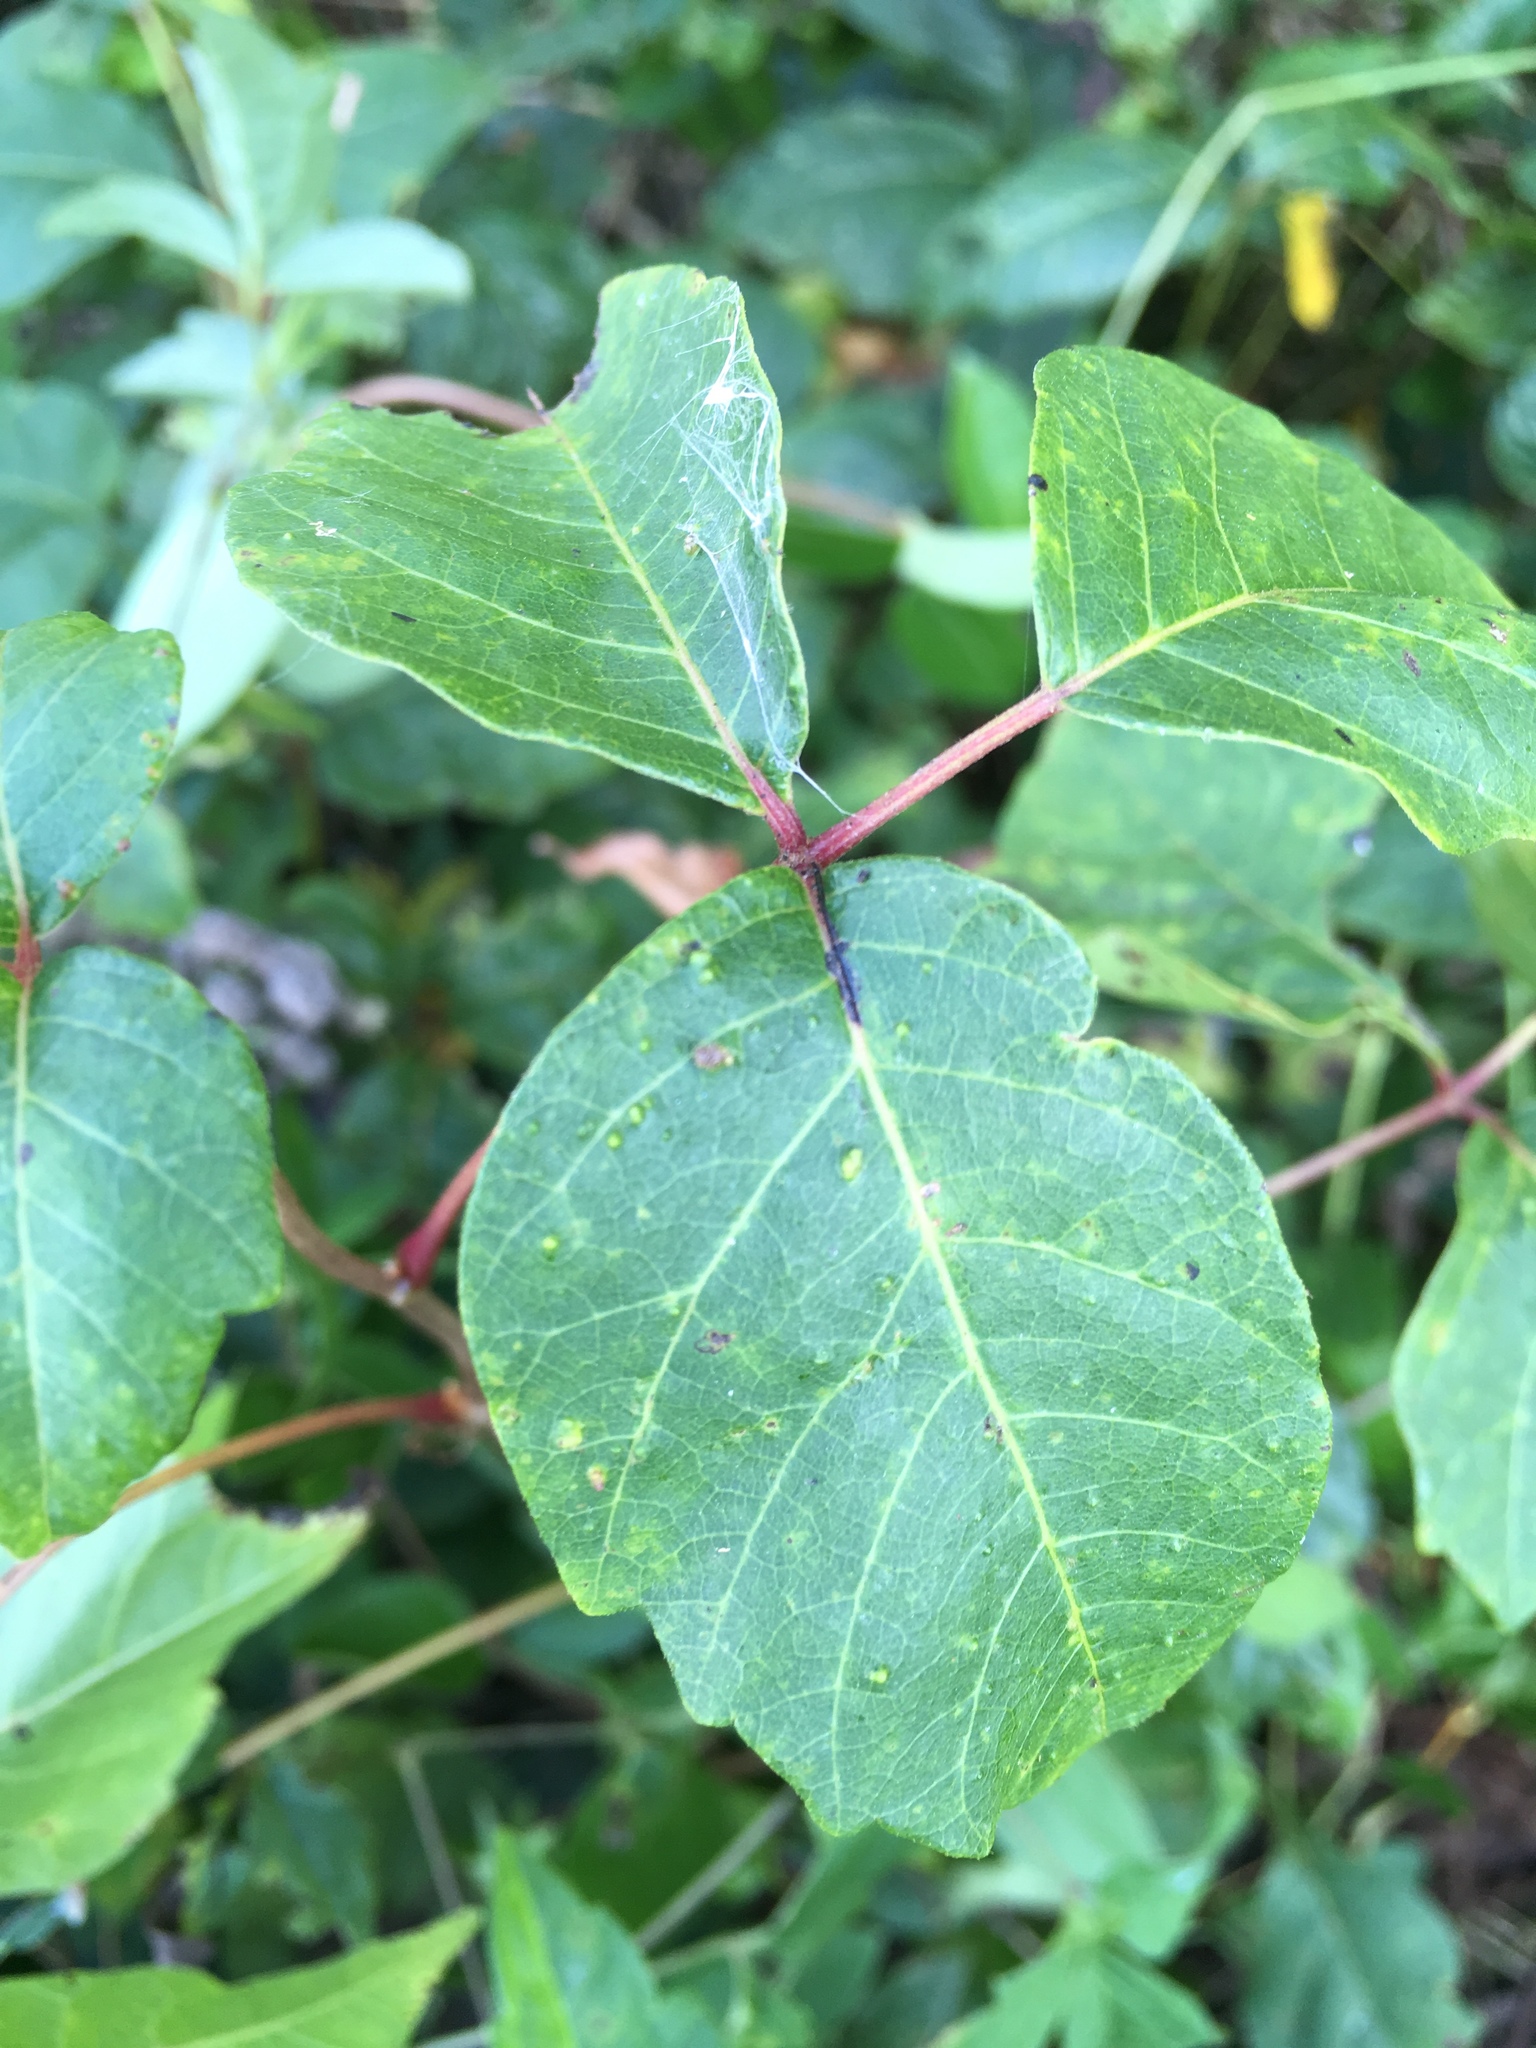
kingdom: Plantae
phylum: Tracheophyta
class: Magnoliopsida
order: Sapindales
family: Anacardiaceae
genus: Toxicodendron
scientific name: Toxicodendron radicans
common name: Poison ivy
